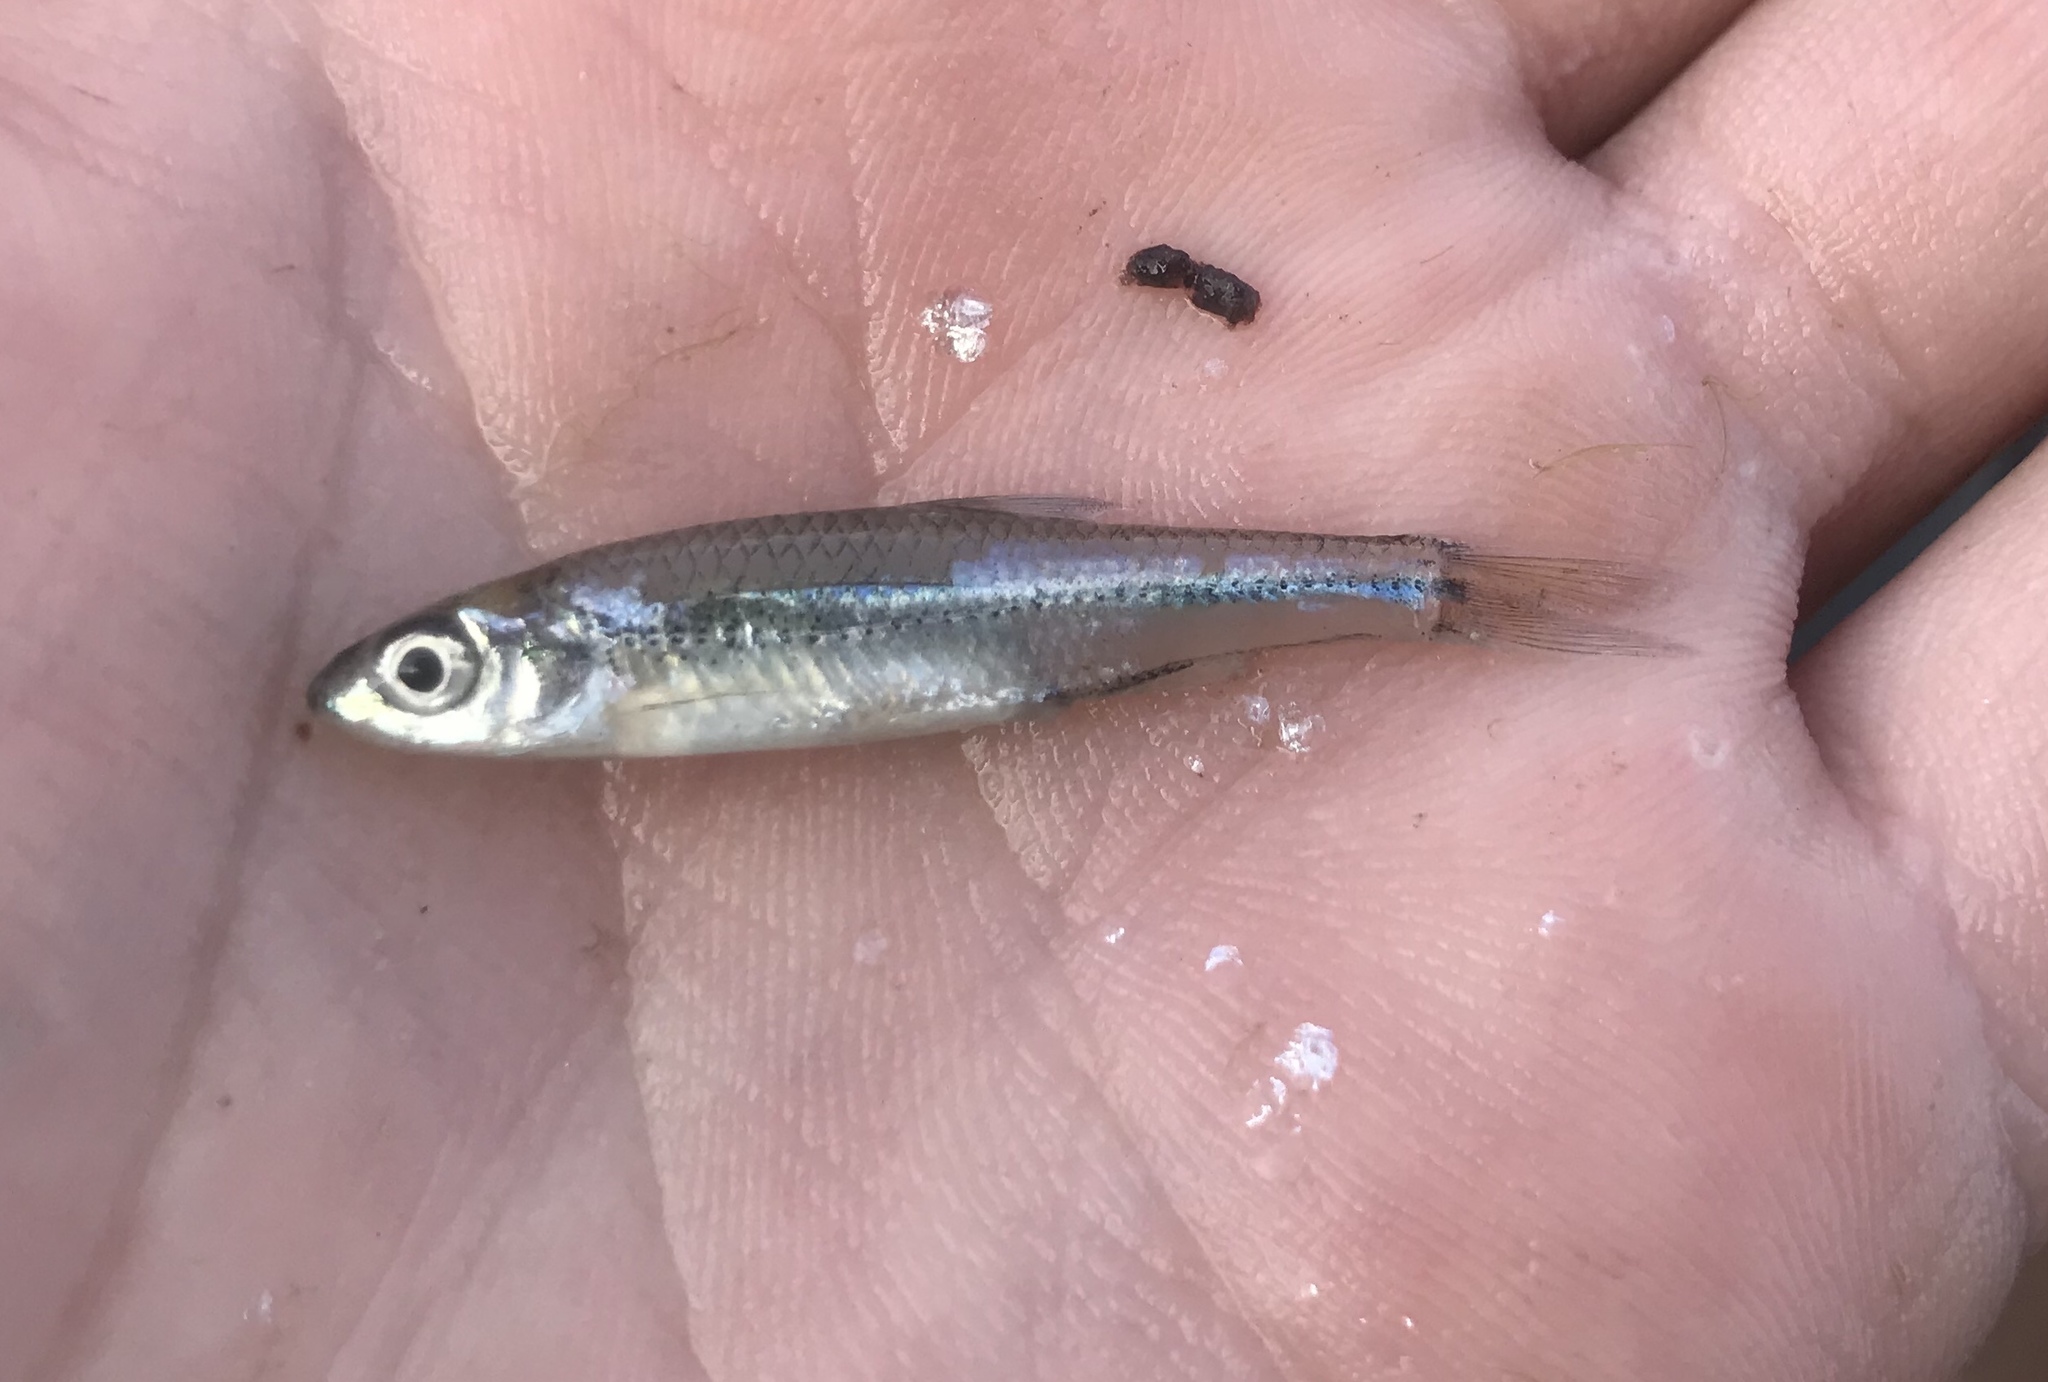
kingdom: Animalia
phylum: Chordata
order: Cypriniformes
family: Cyprinidae
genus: Notropis
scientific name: Notropis
